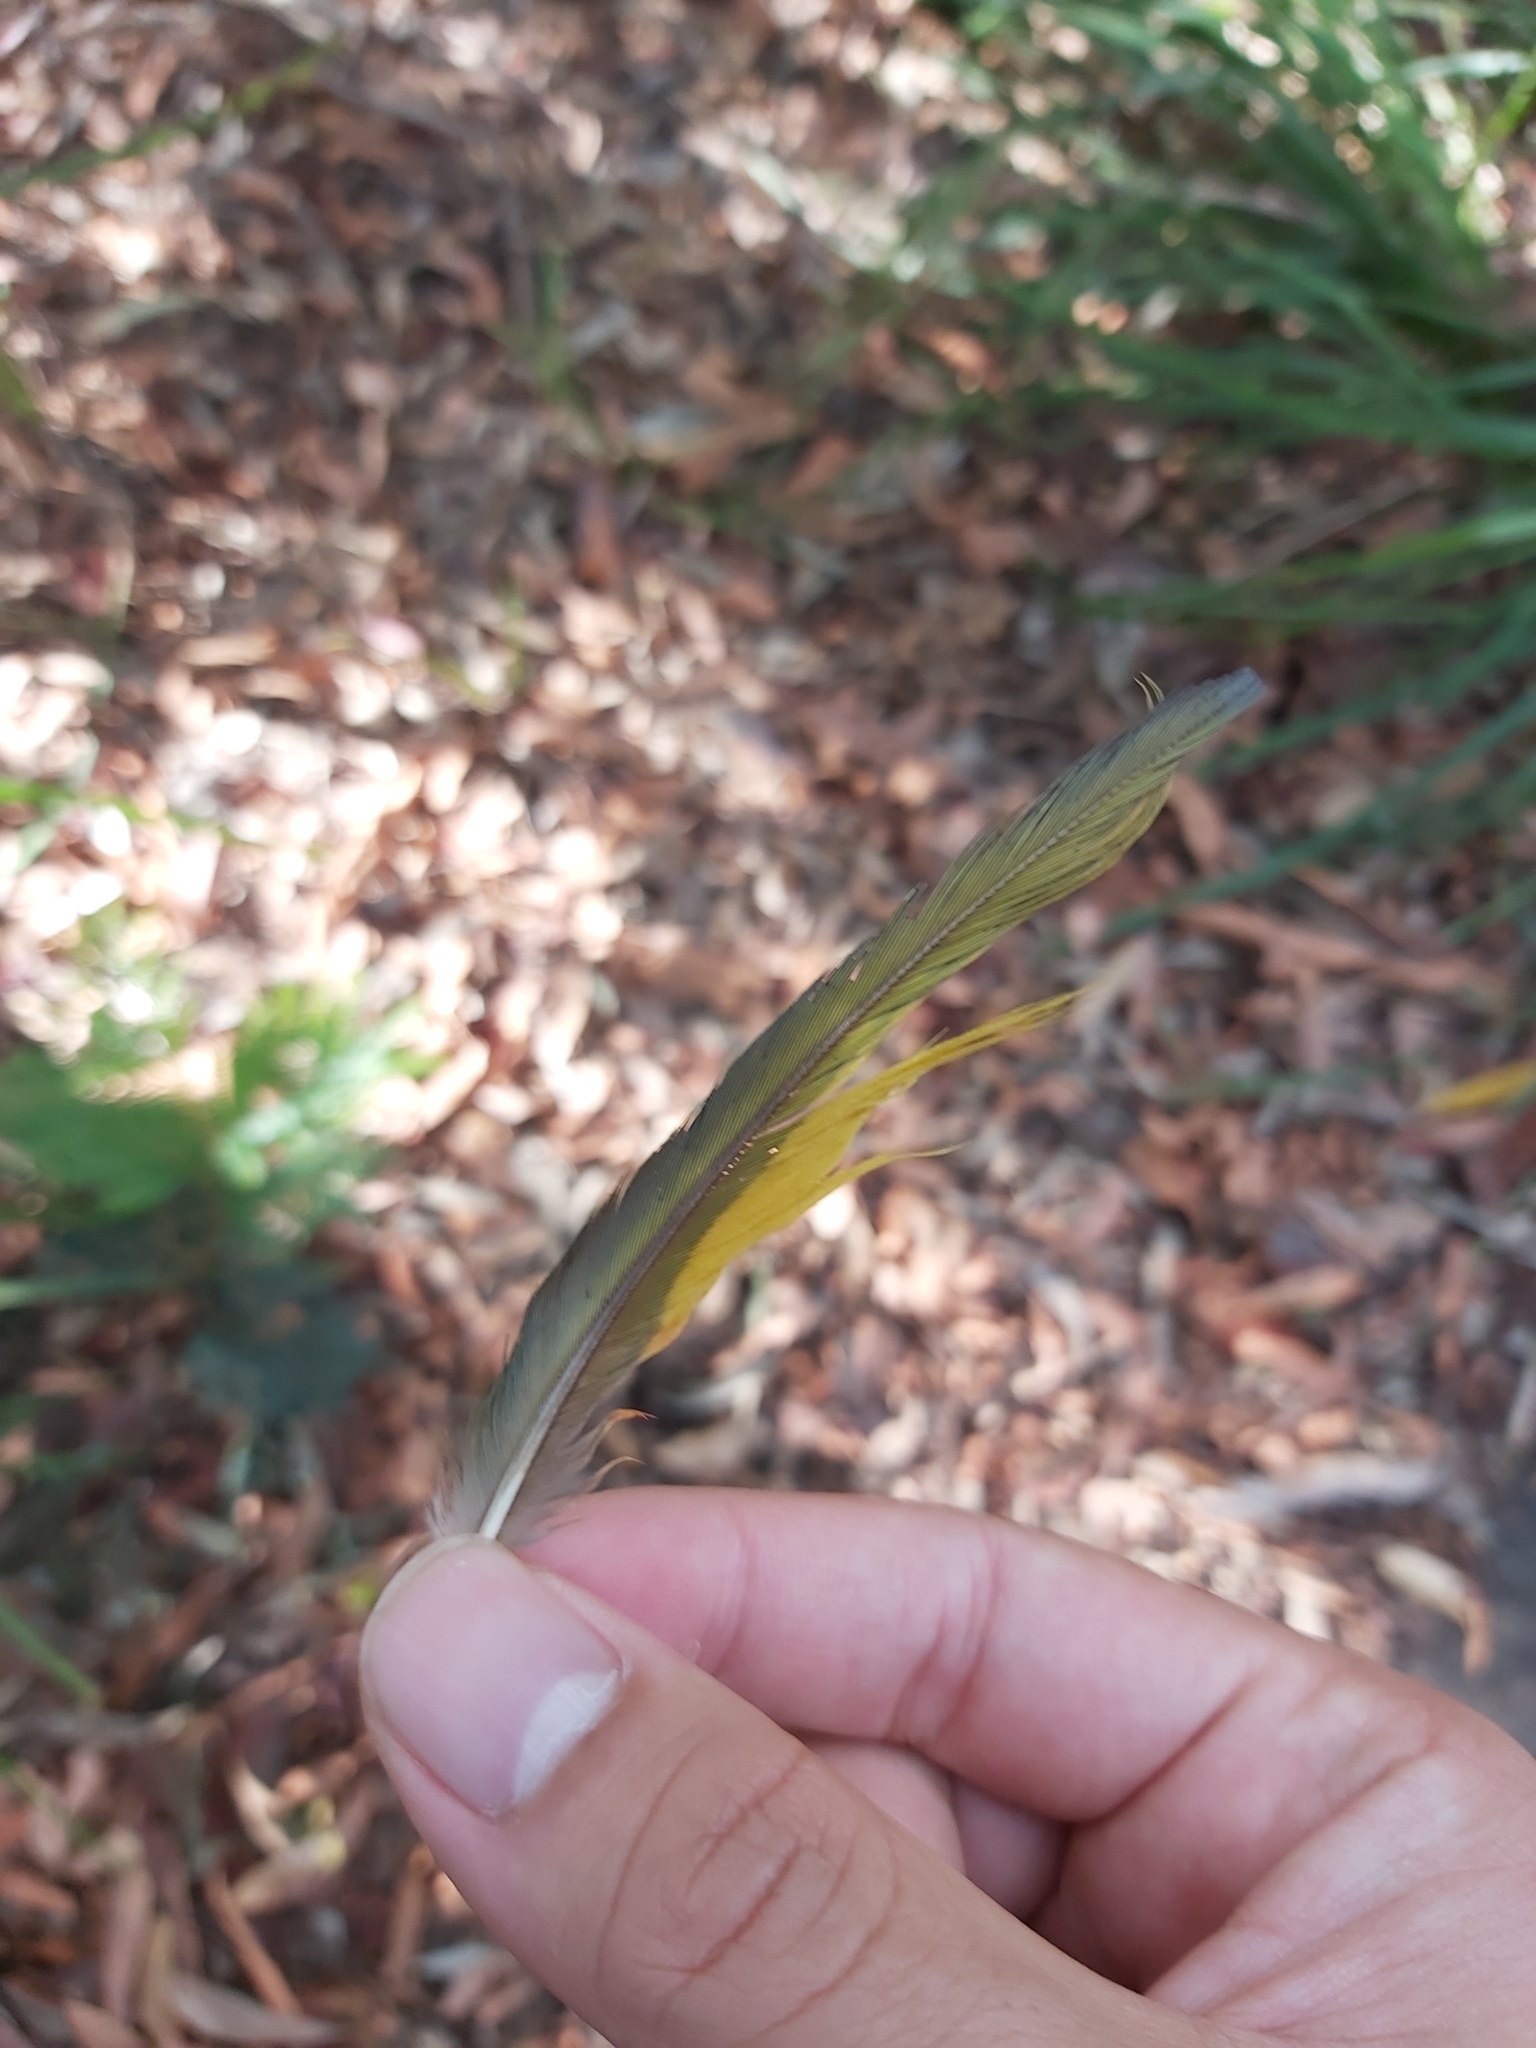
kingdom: Animalia
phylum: Chordata
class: Aves
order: Psittaciformes
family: Psittacidae
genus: Trichoglossus
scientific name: Trichoglossus haematodus
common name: Coconut lorikeet
